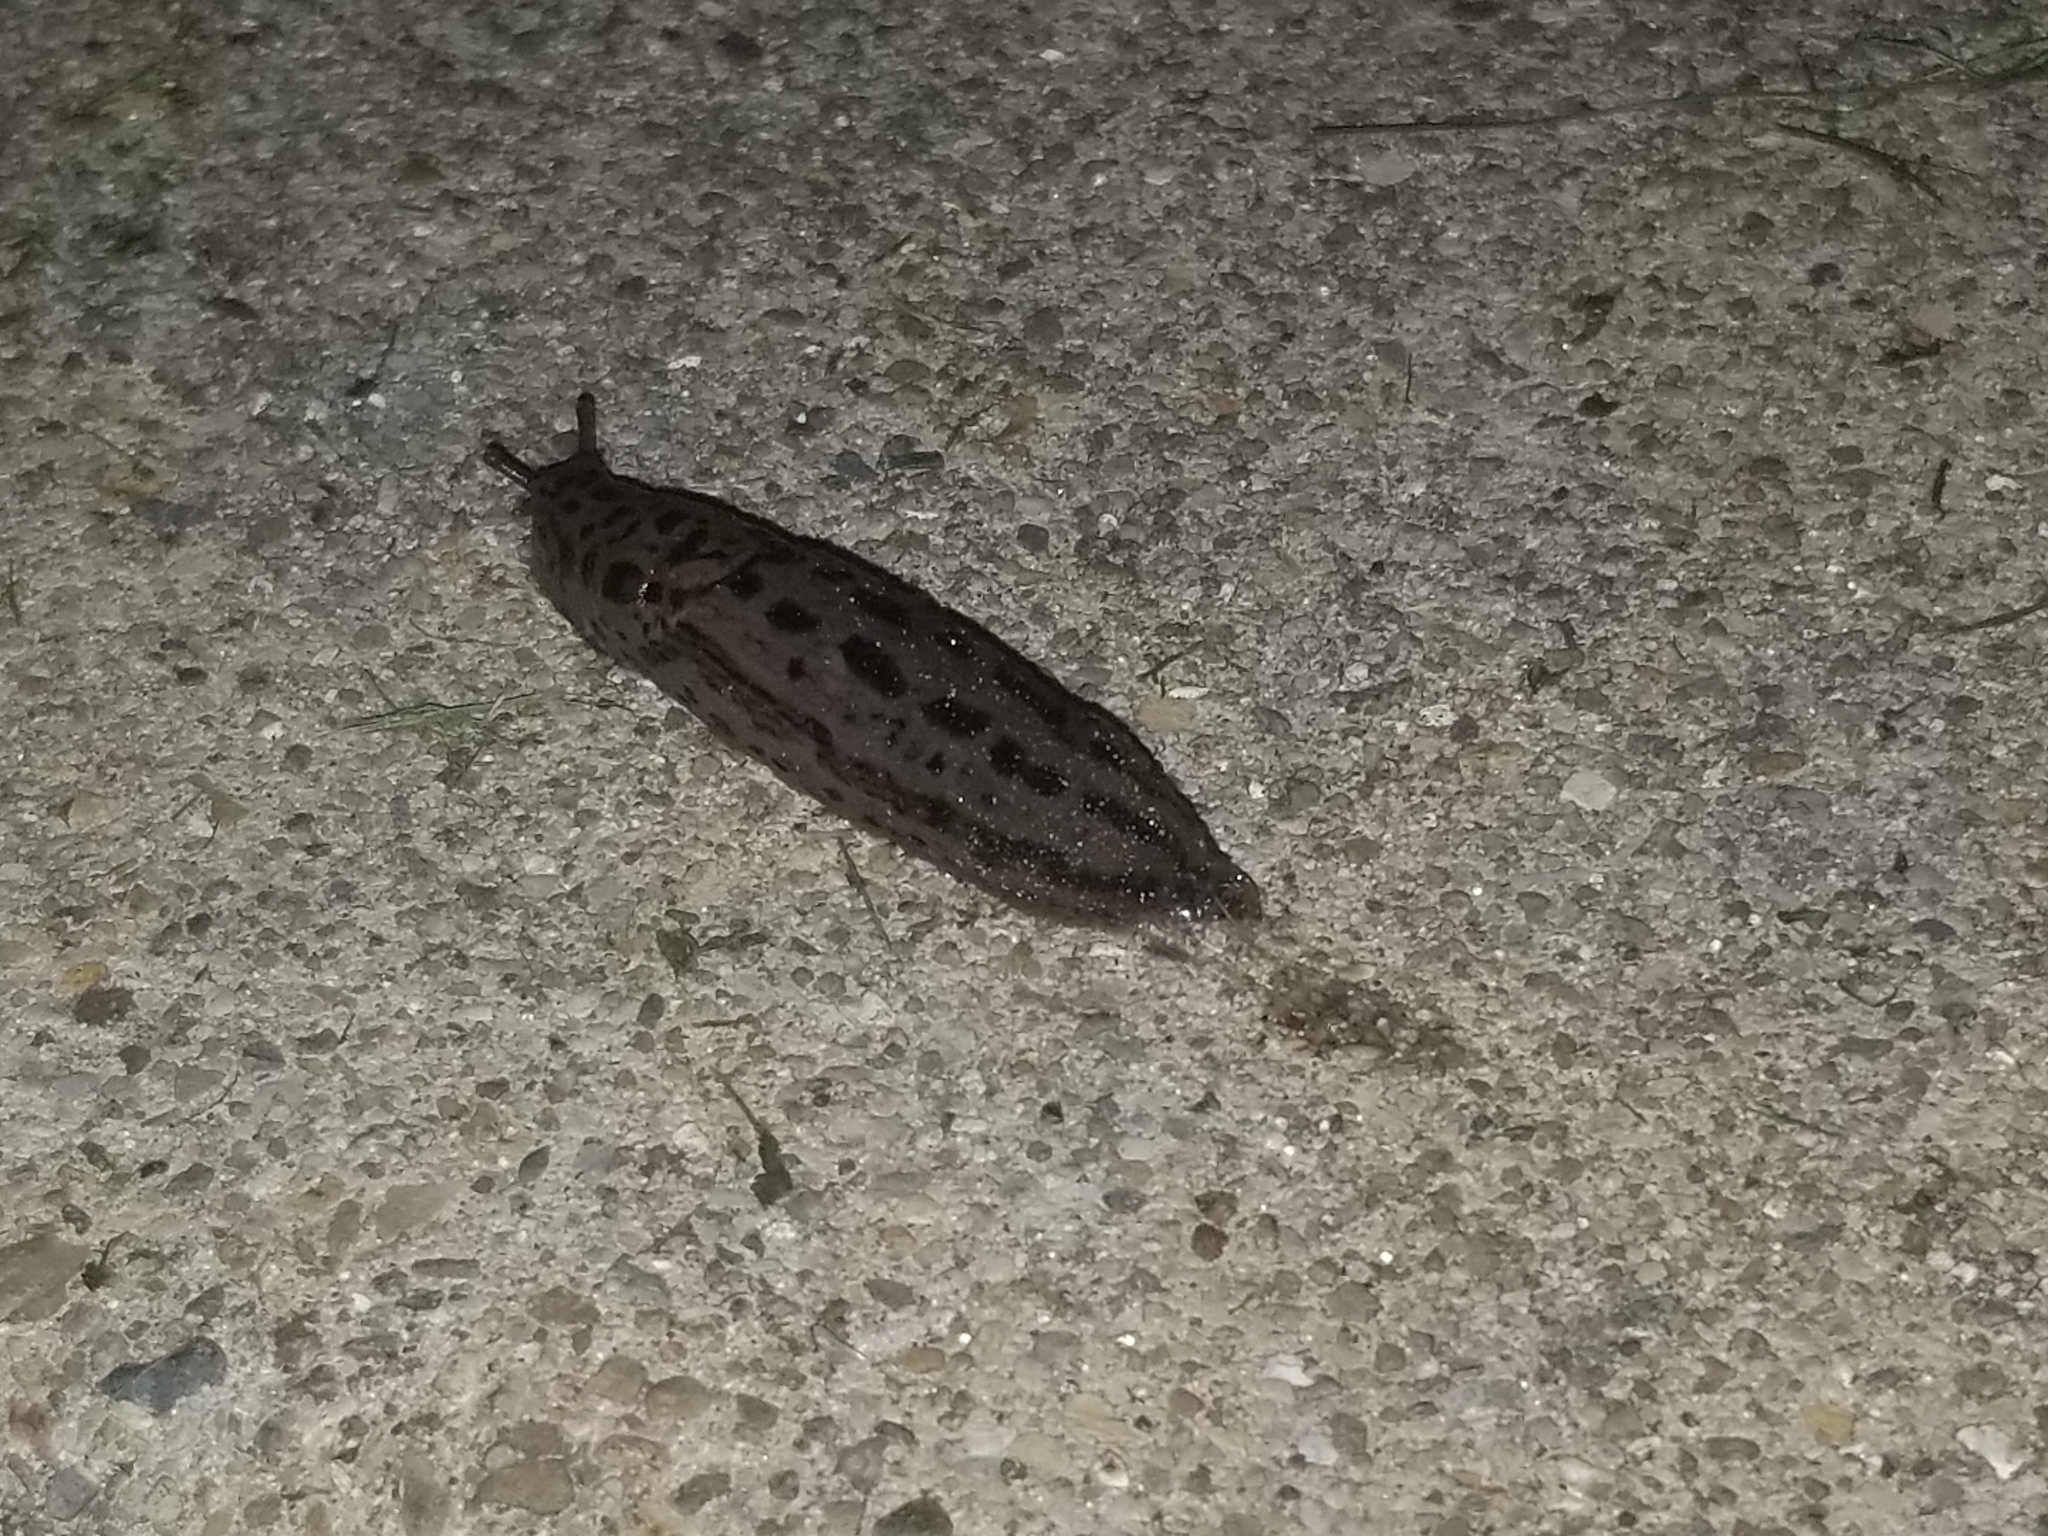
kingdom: Animalia
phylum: Mollusca
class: Gastropoda
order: Stylommatophora
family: Limacidae
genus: Limax
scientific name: Limax maximus
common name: Great grey slug
